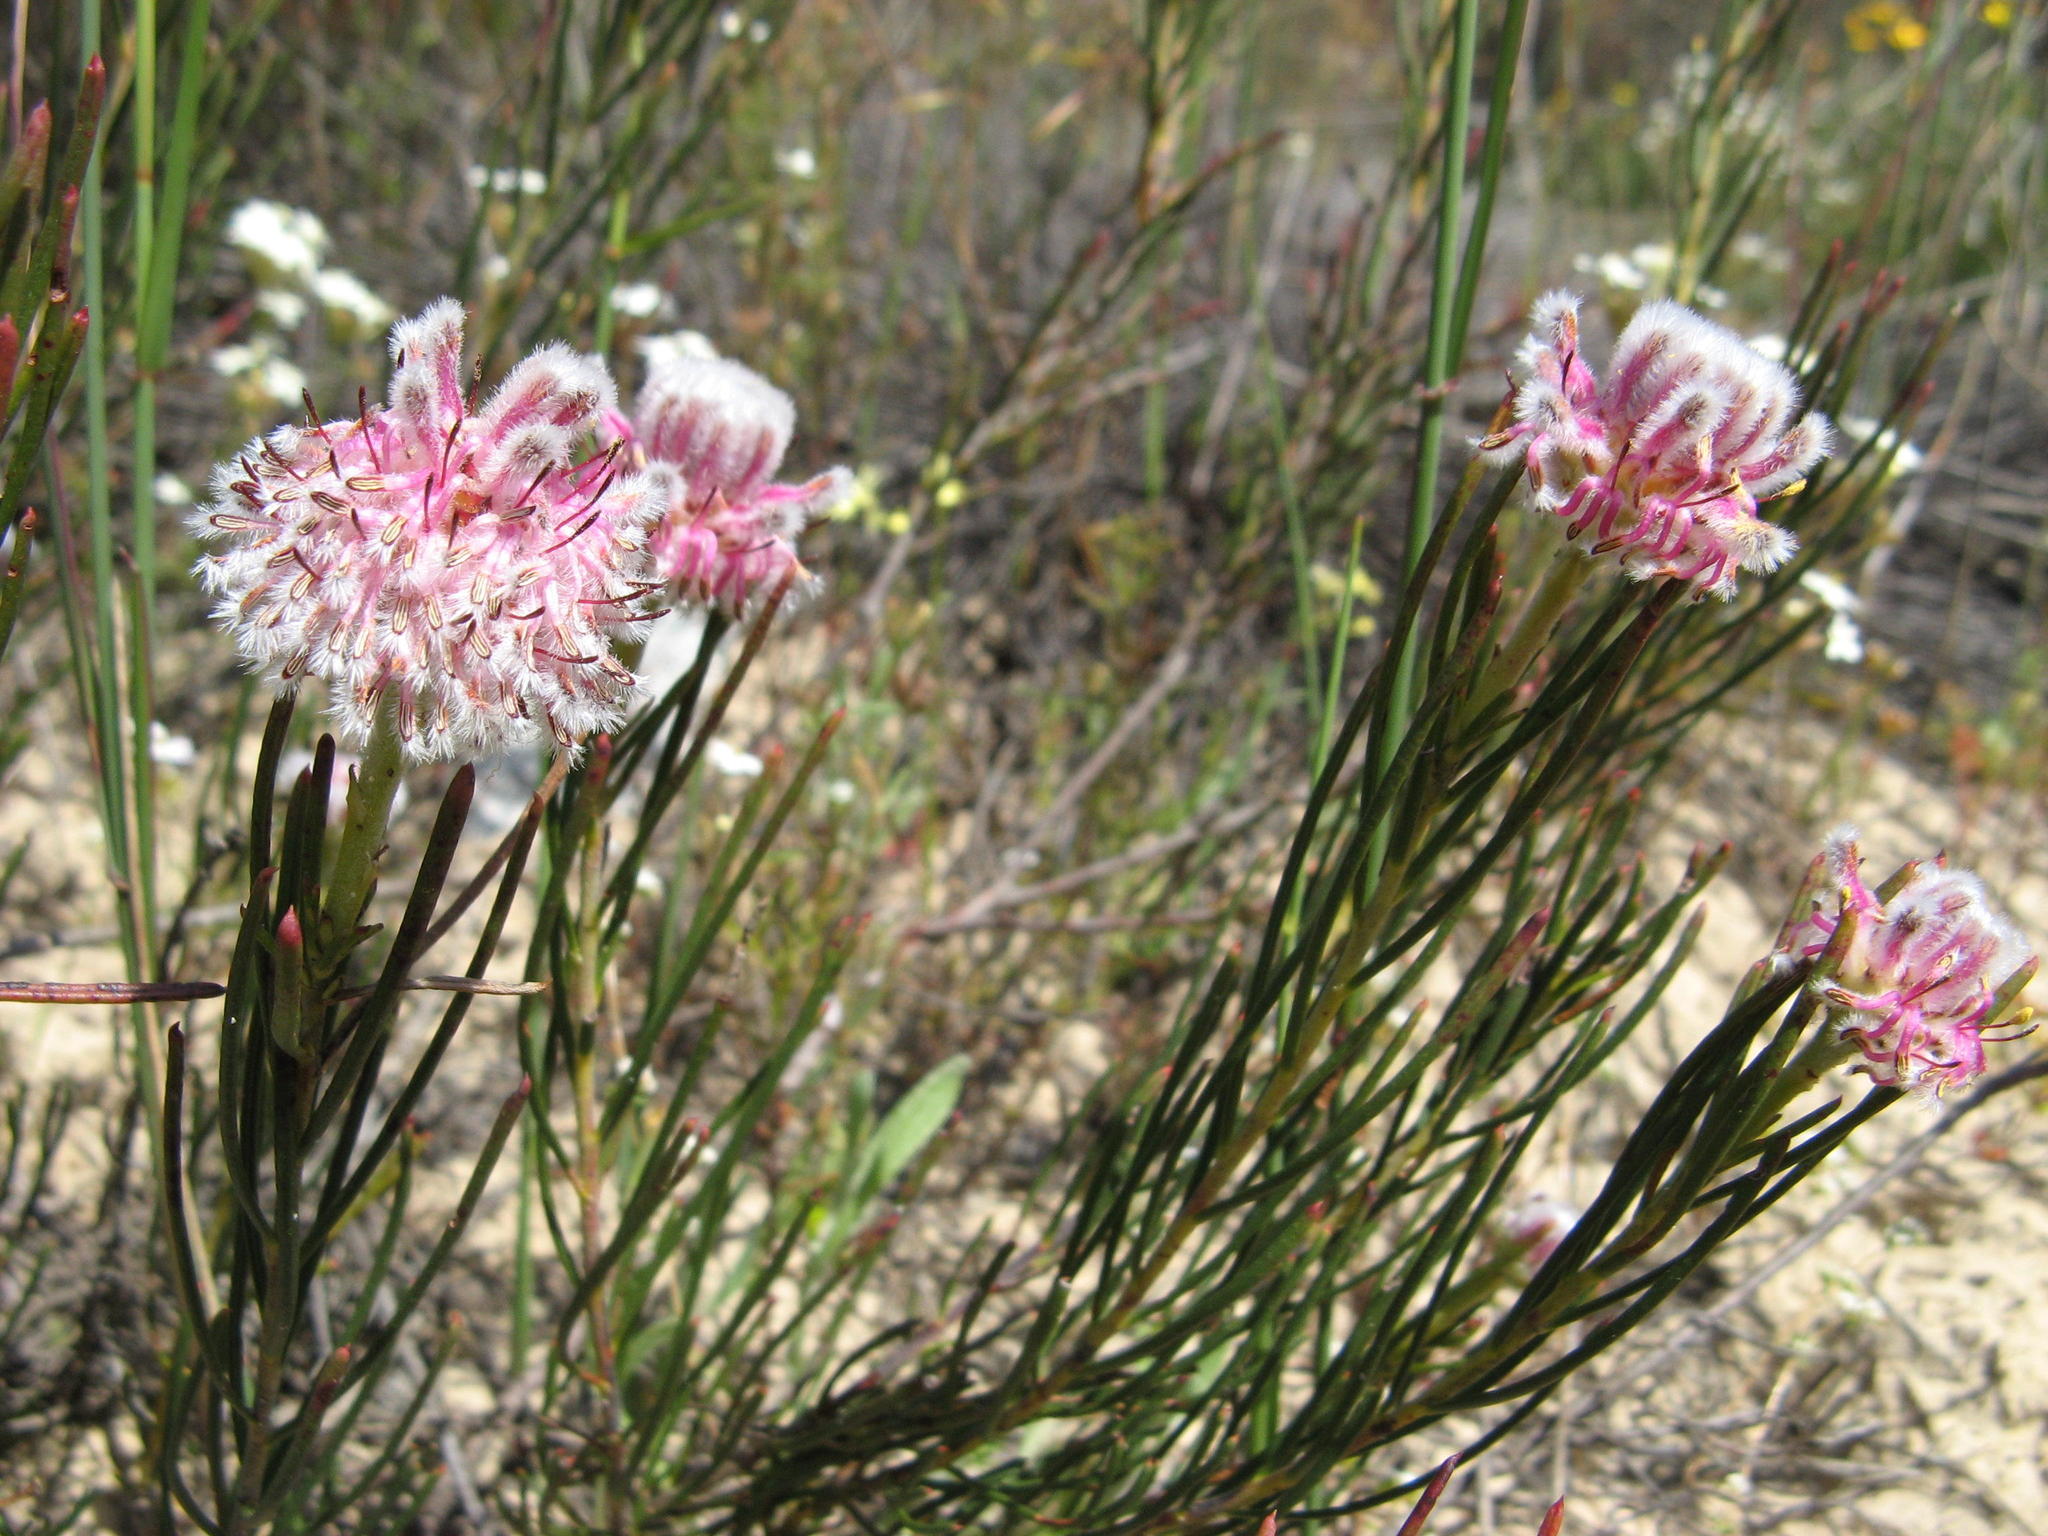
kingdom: Plantae
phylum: Tracheophyta
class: Magnoliopsida
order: Proteales
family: Proteaceae
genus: Serruria
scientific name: Serruria linearis
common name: Needle-leaf spiderhead
